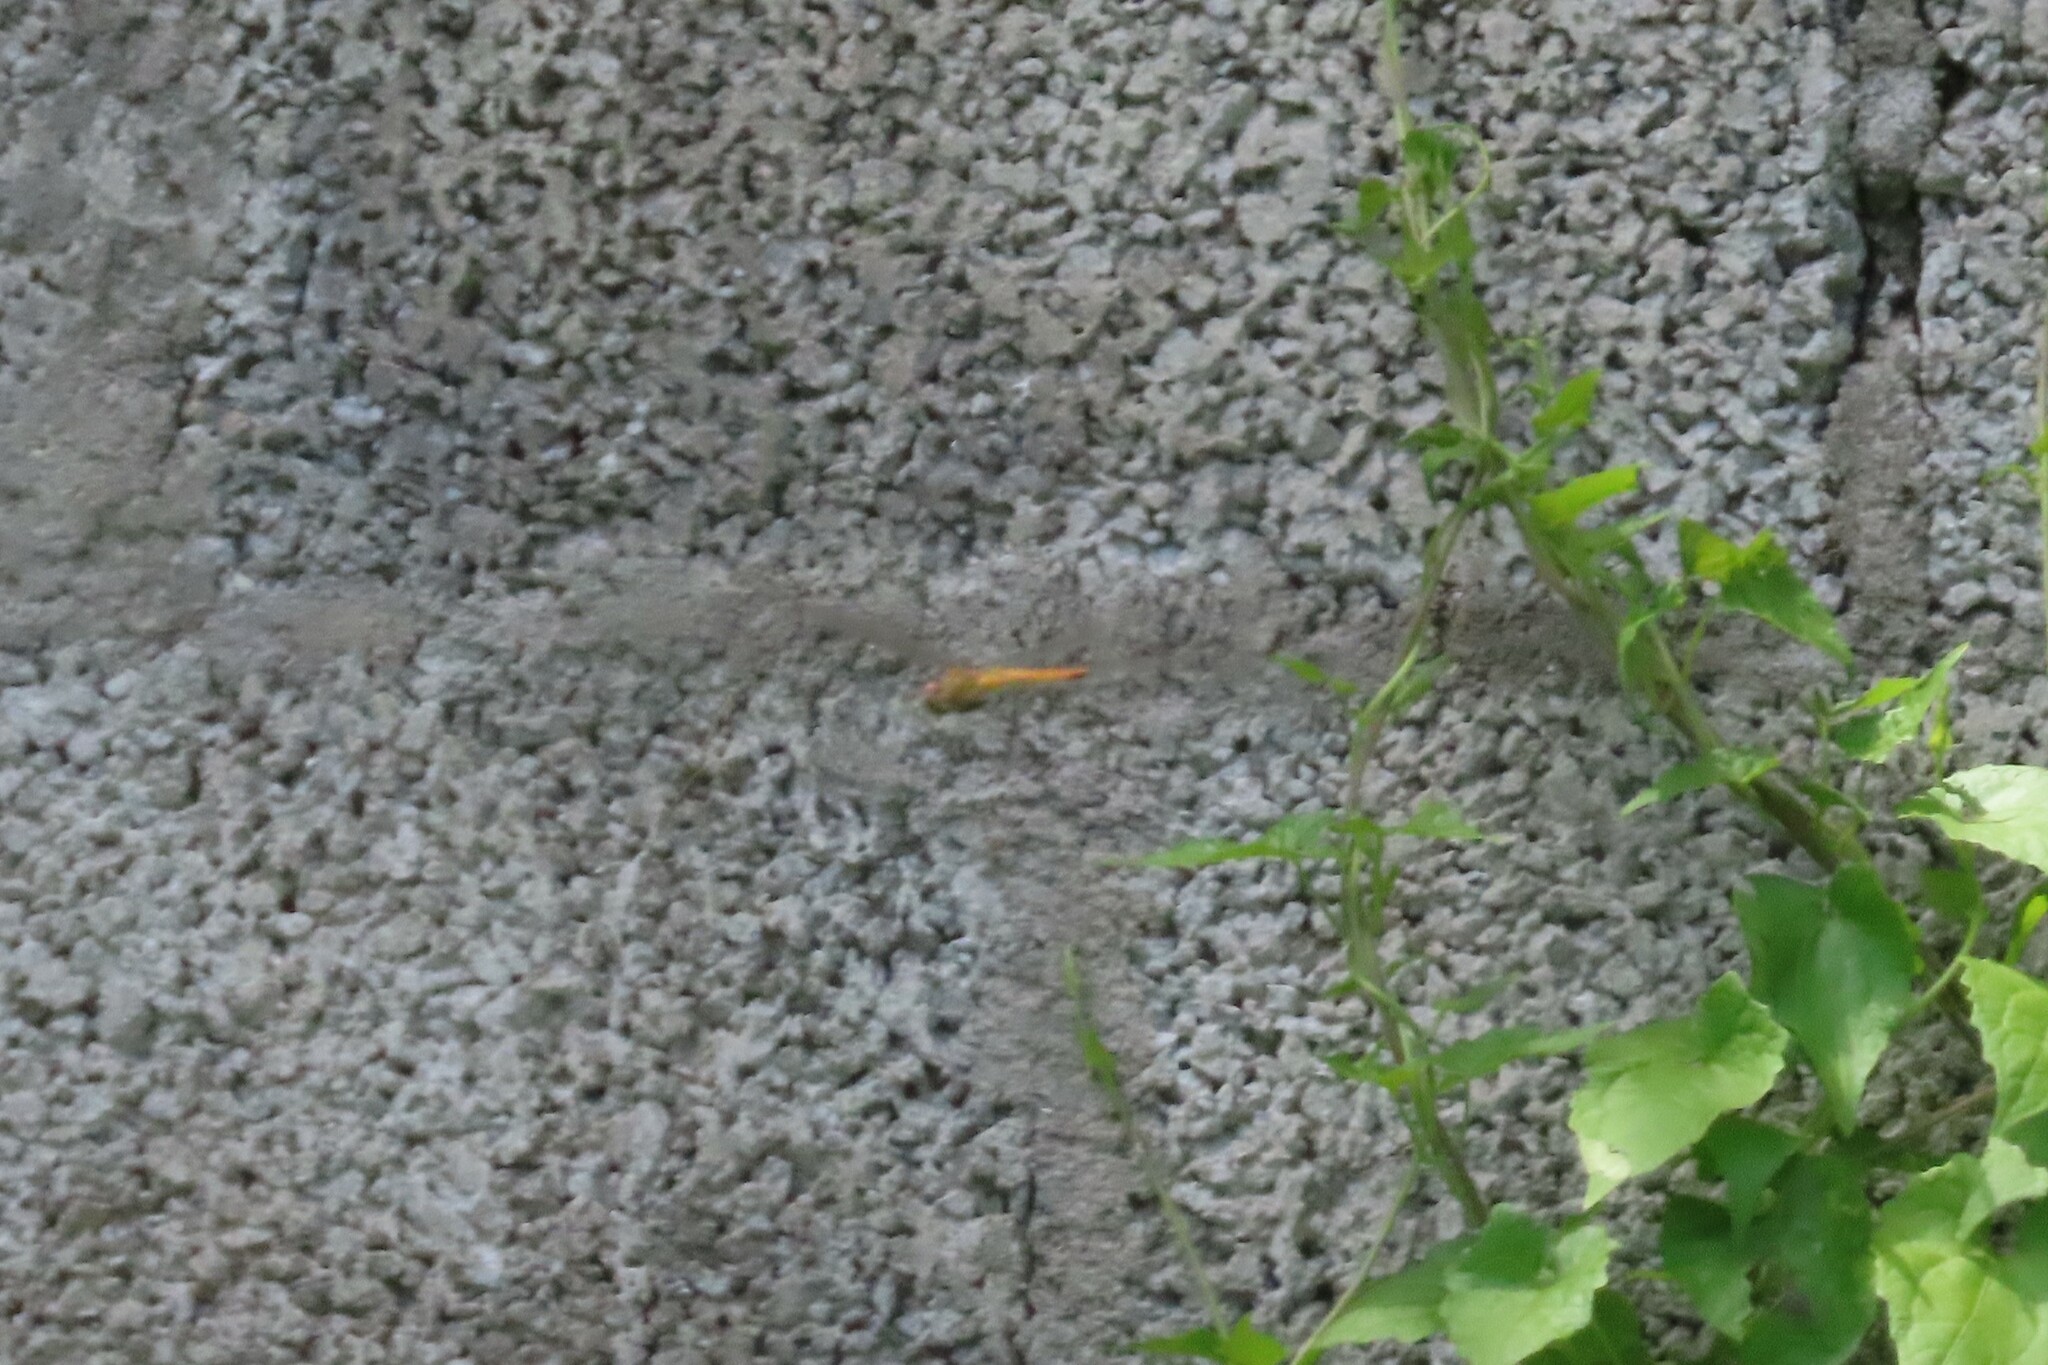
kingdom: Animalia
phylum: Arthropoda
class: Insecta
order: Odonata
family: Libellulidae
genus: Pantala
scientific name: Pantala flavescens
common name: Wandering glider
